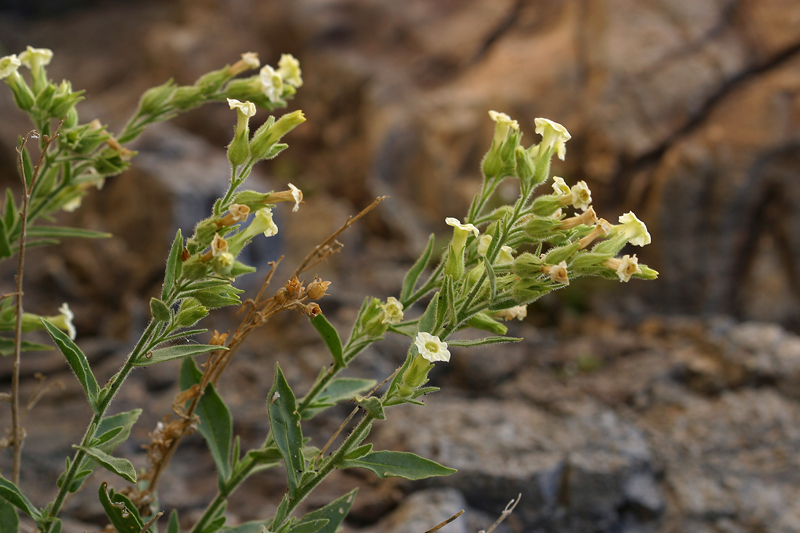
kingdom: Plantae
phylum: Tracheophyta
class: Magnoliopsida
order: Solanales
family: Solanaceae
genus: Nicotiana
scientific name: Nicotiana obtusifolia
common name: Desert tobacco
